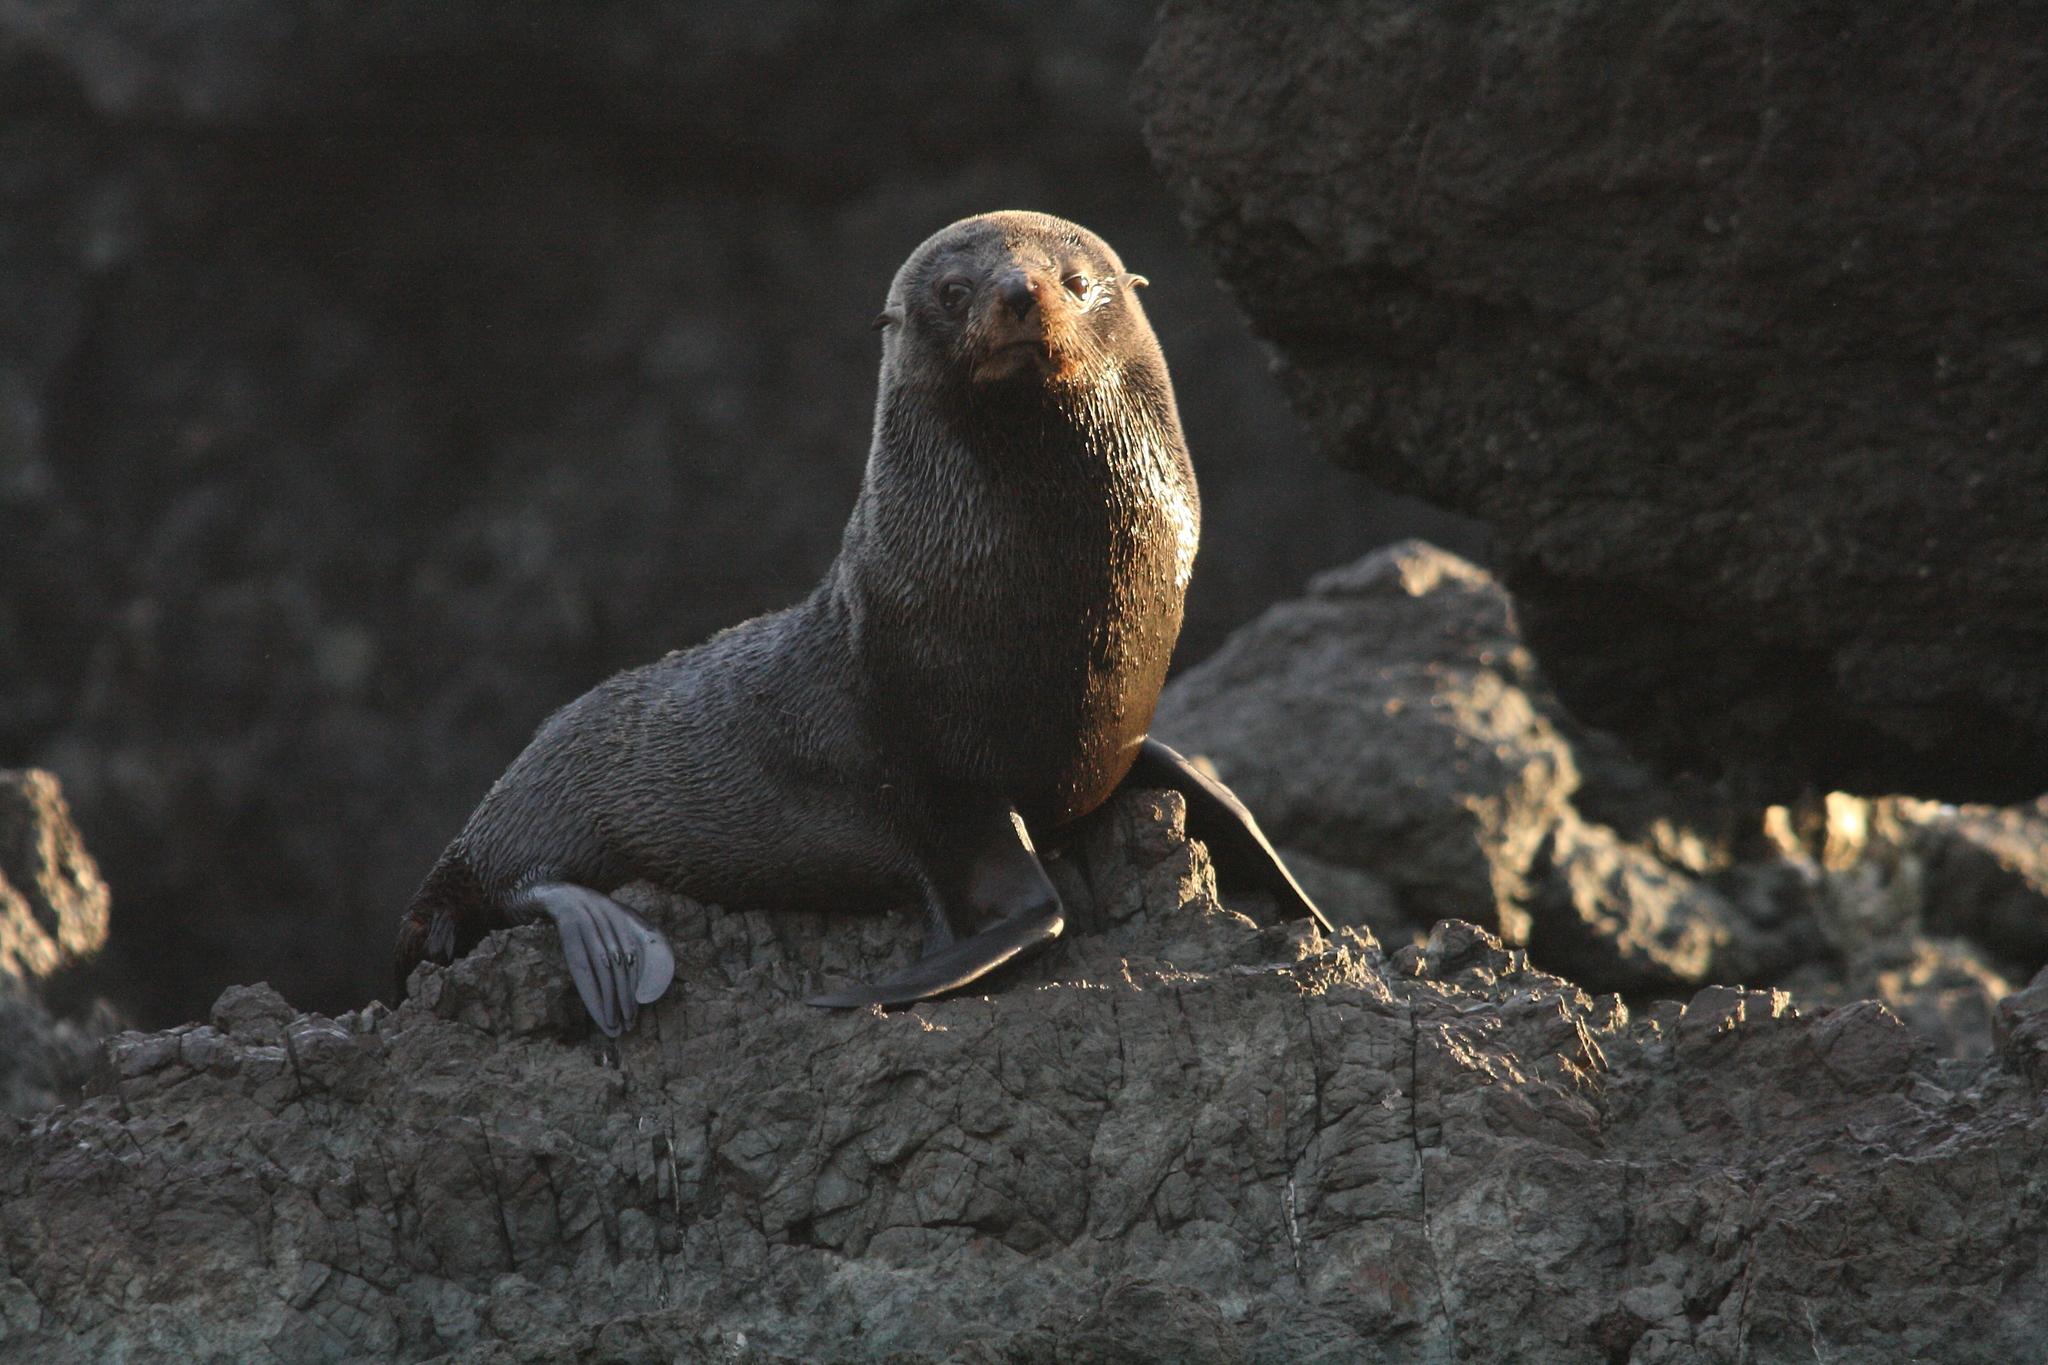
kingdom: Animalia
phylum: Chordata
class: Mammalia
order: Carnivora
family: Otariidae
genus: Arctocephalus
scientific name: Arctocephalus forsteri
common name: New zealand fur seal
